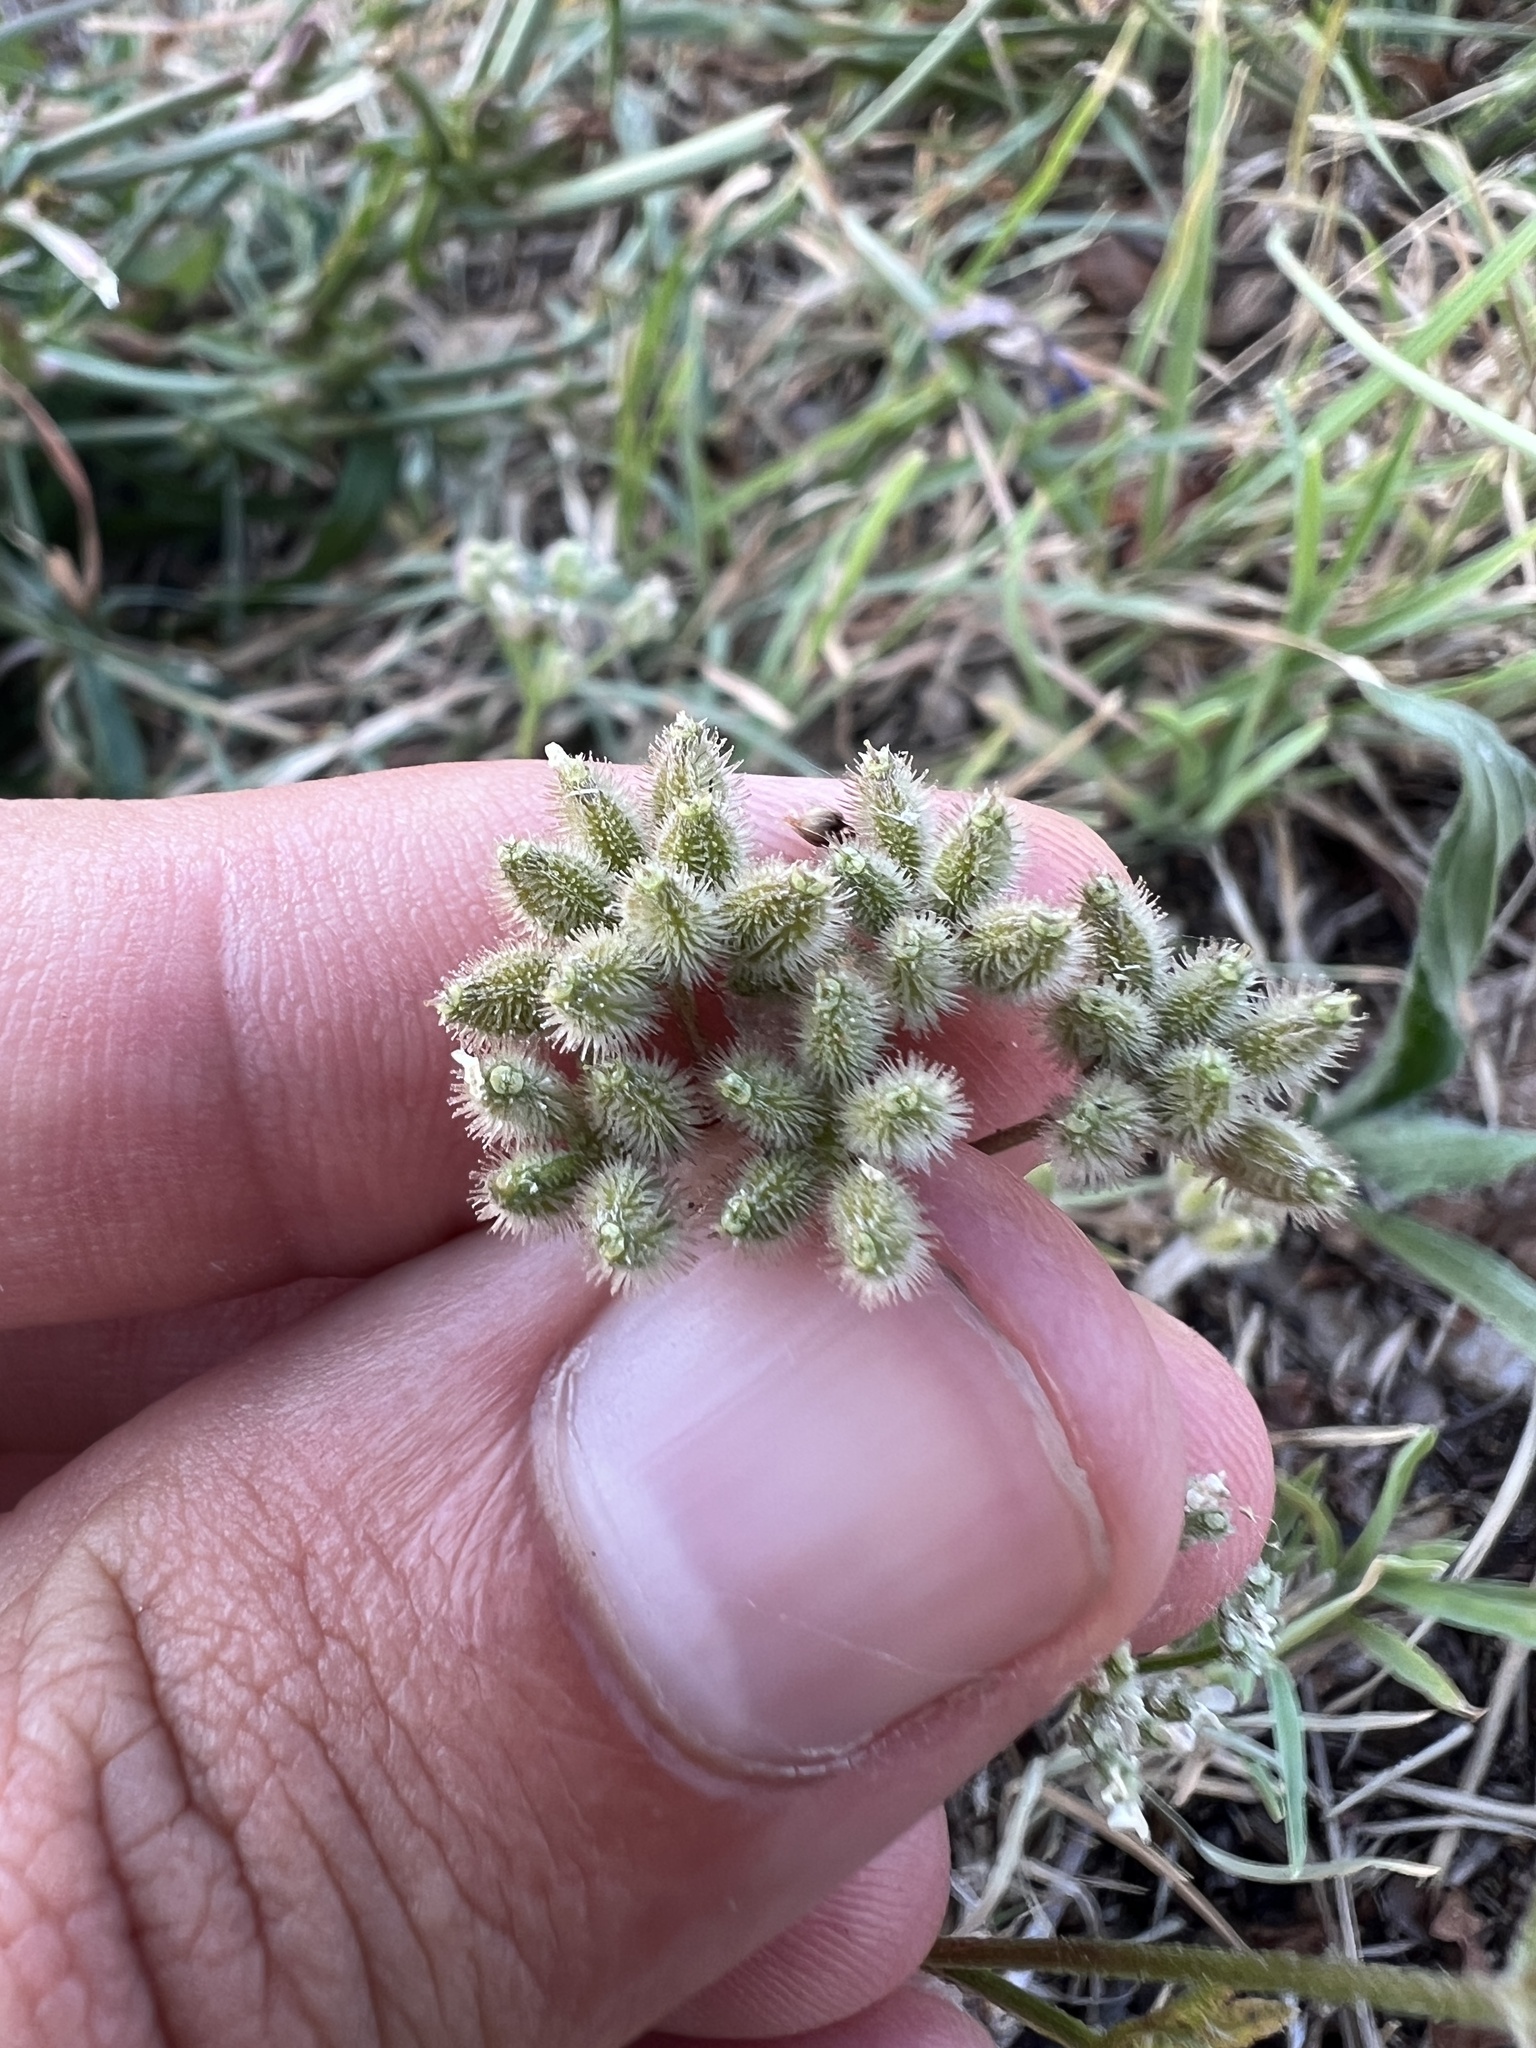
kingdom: Plantae
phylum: Tracheophyta
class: Magnoliopsida
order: Apiales
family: Apiaceae
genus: Torilis
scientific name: Torilis arvensis
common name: Spreading hedge-parsley
